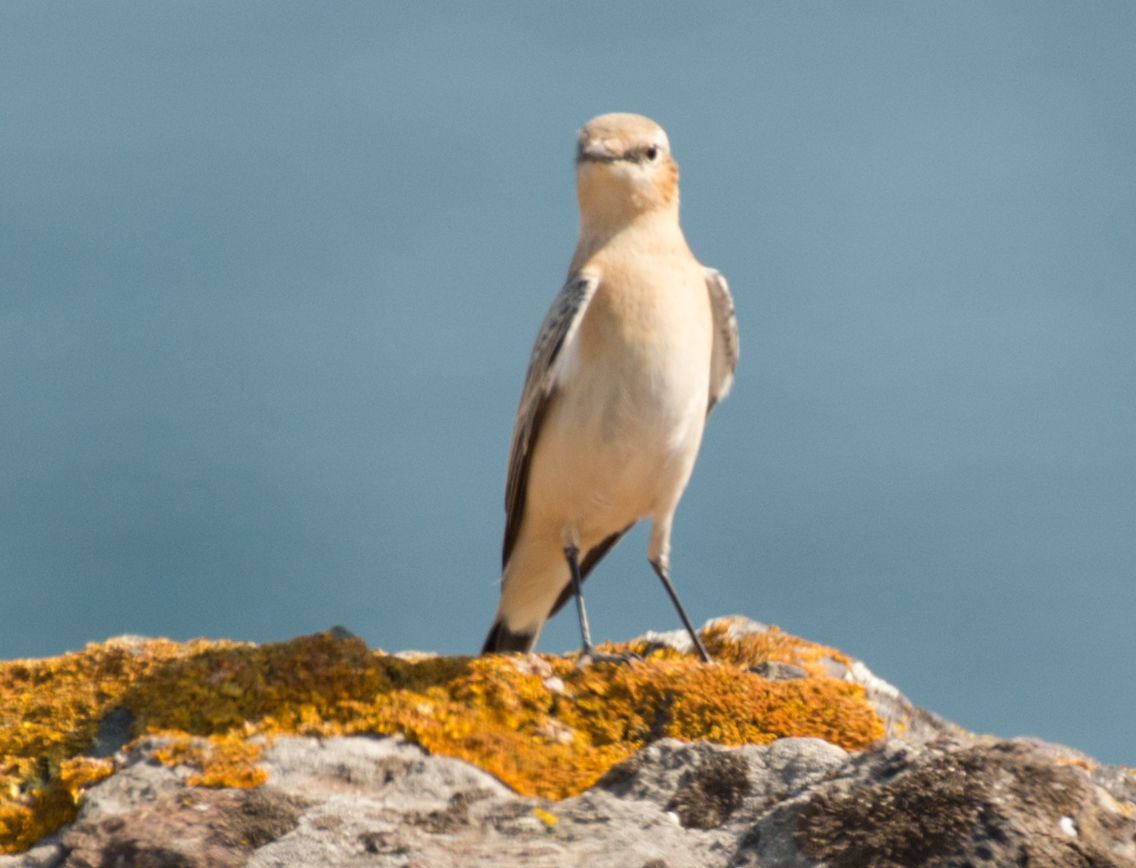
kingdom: Animalia
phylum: Chordata
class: Aves
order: Passeriformes
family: Muscicapidae
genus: Oenanthe
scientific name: Oenanthe oenanthe
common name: Northern wheatear
